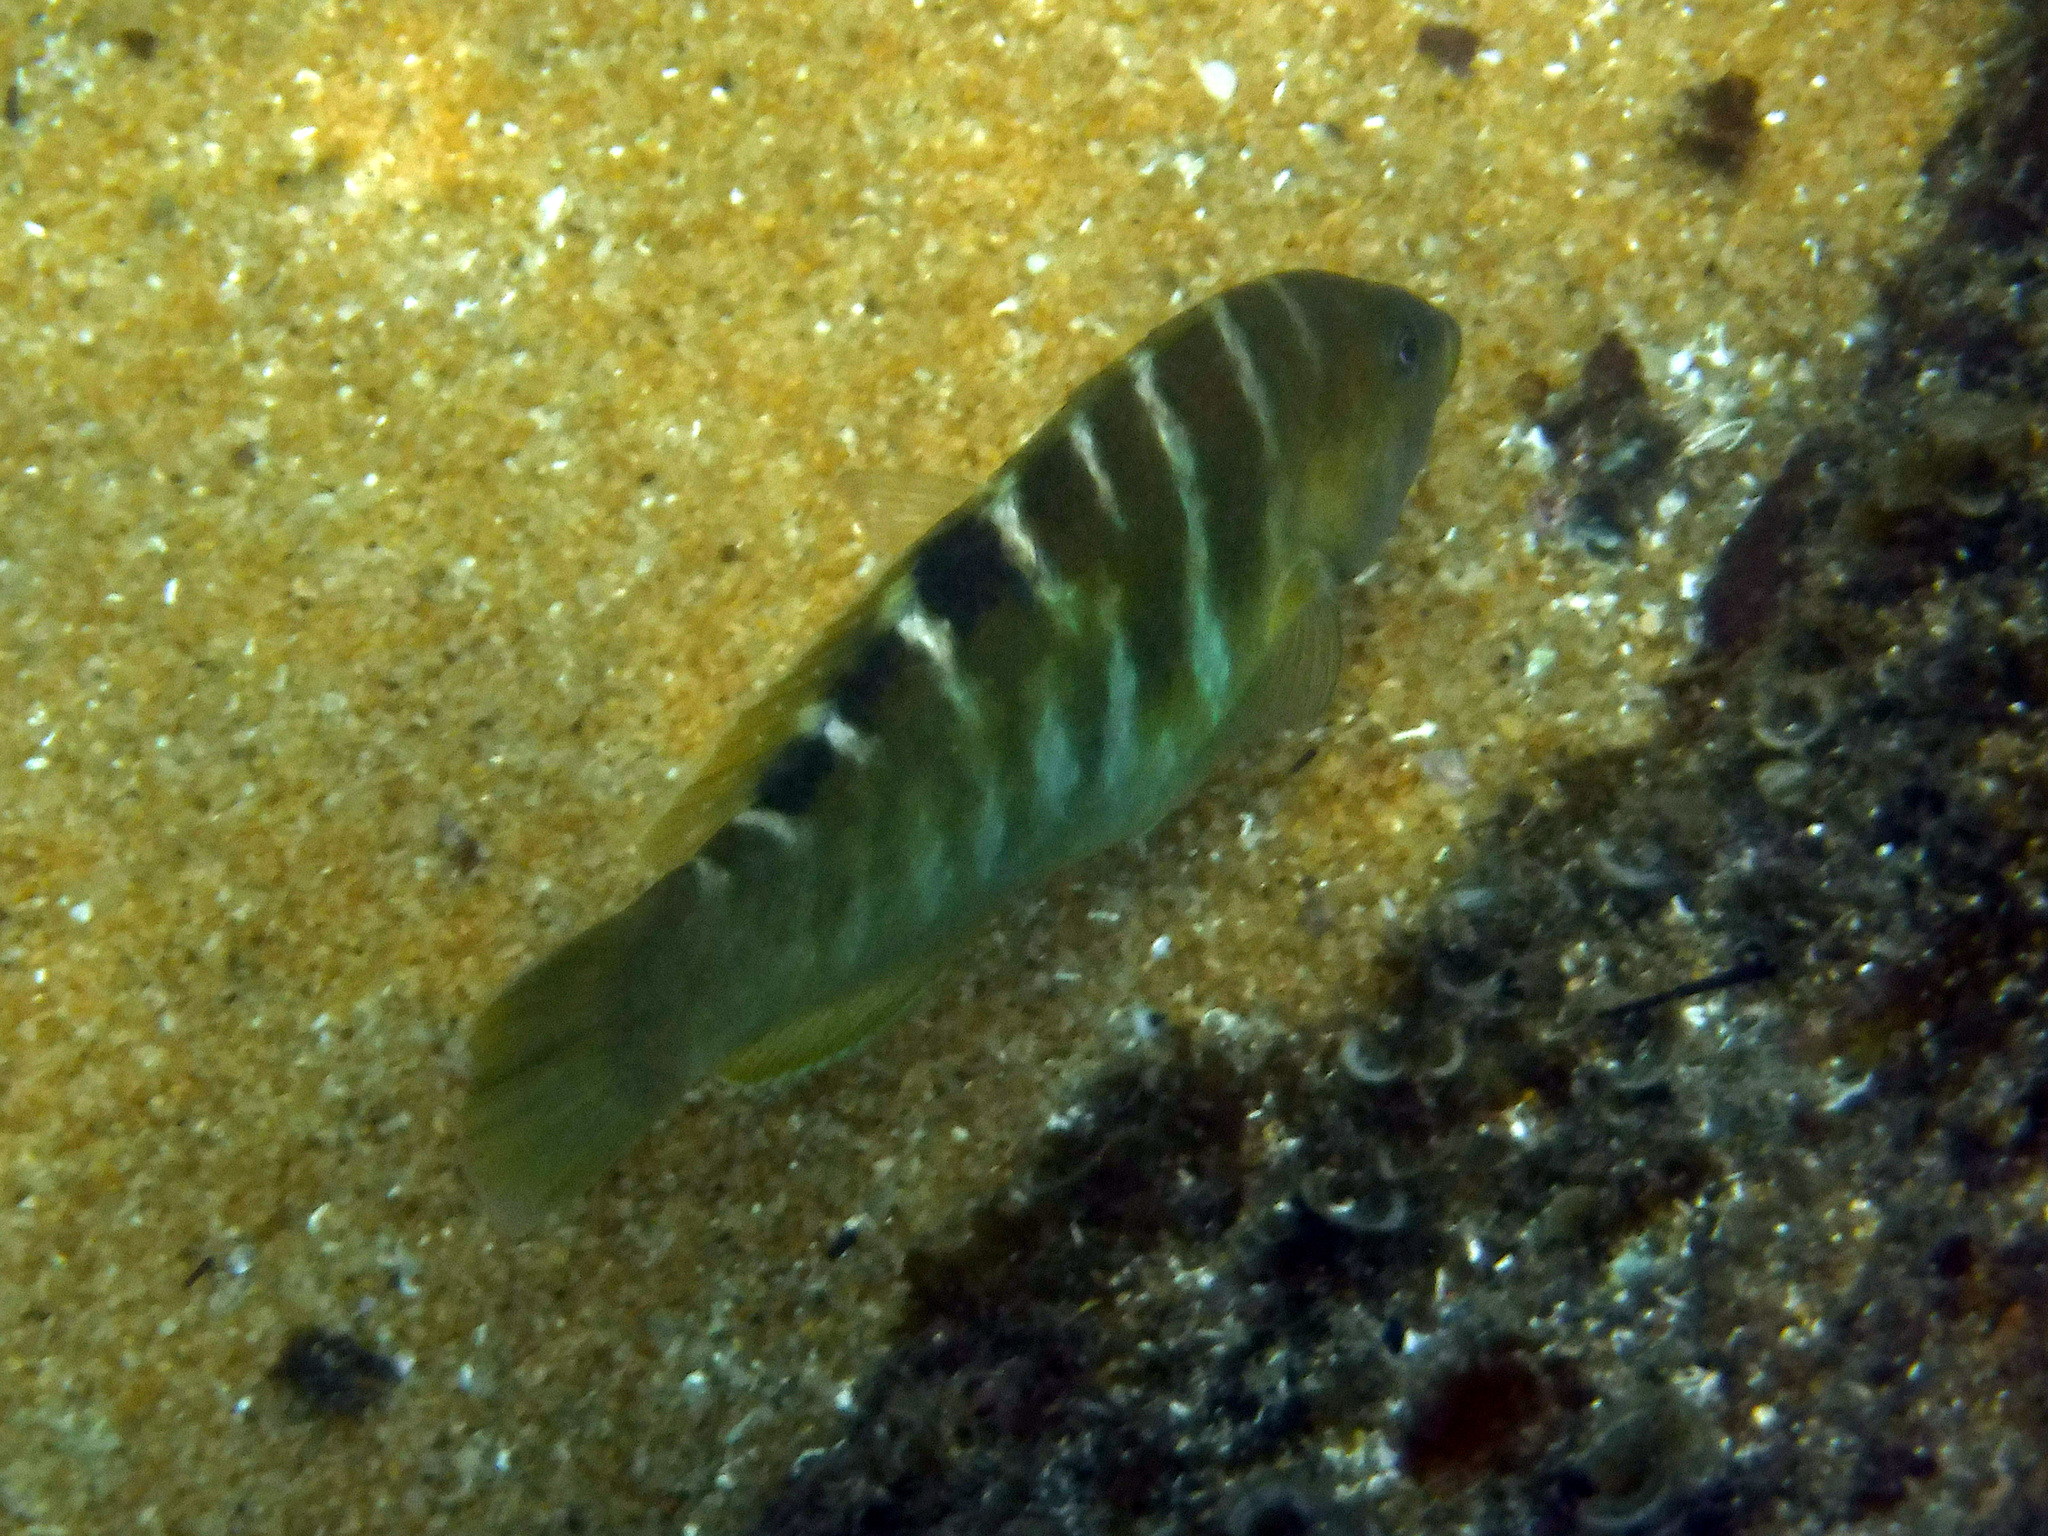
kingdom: Animalia
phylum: Chordata
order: Perciformes
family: Labridae
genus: Halichoeres
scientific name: Halichoeres notospilus
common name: Banded wrasse
